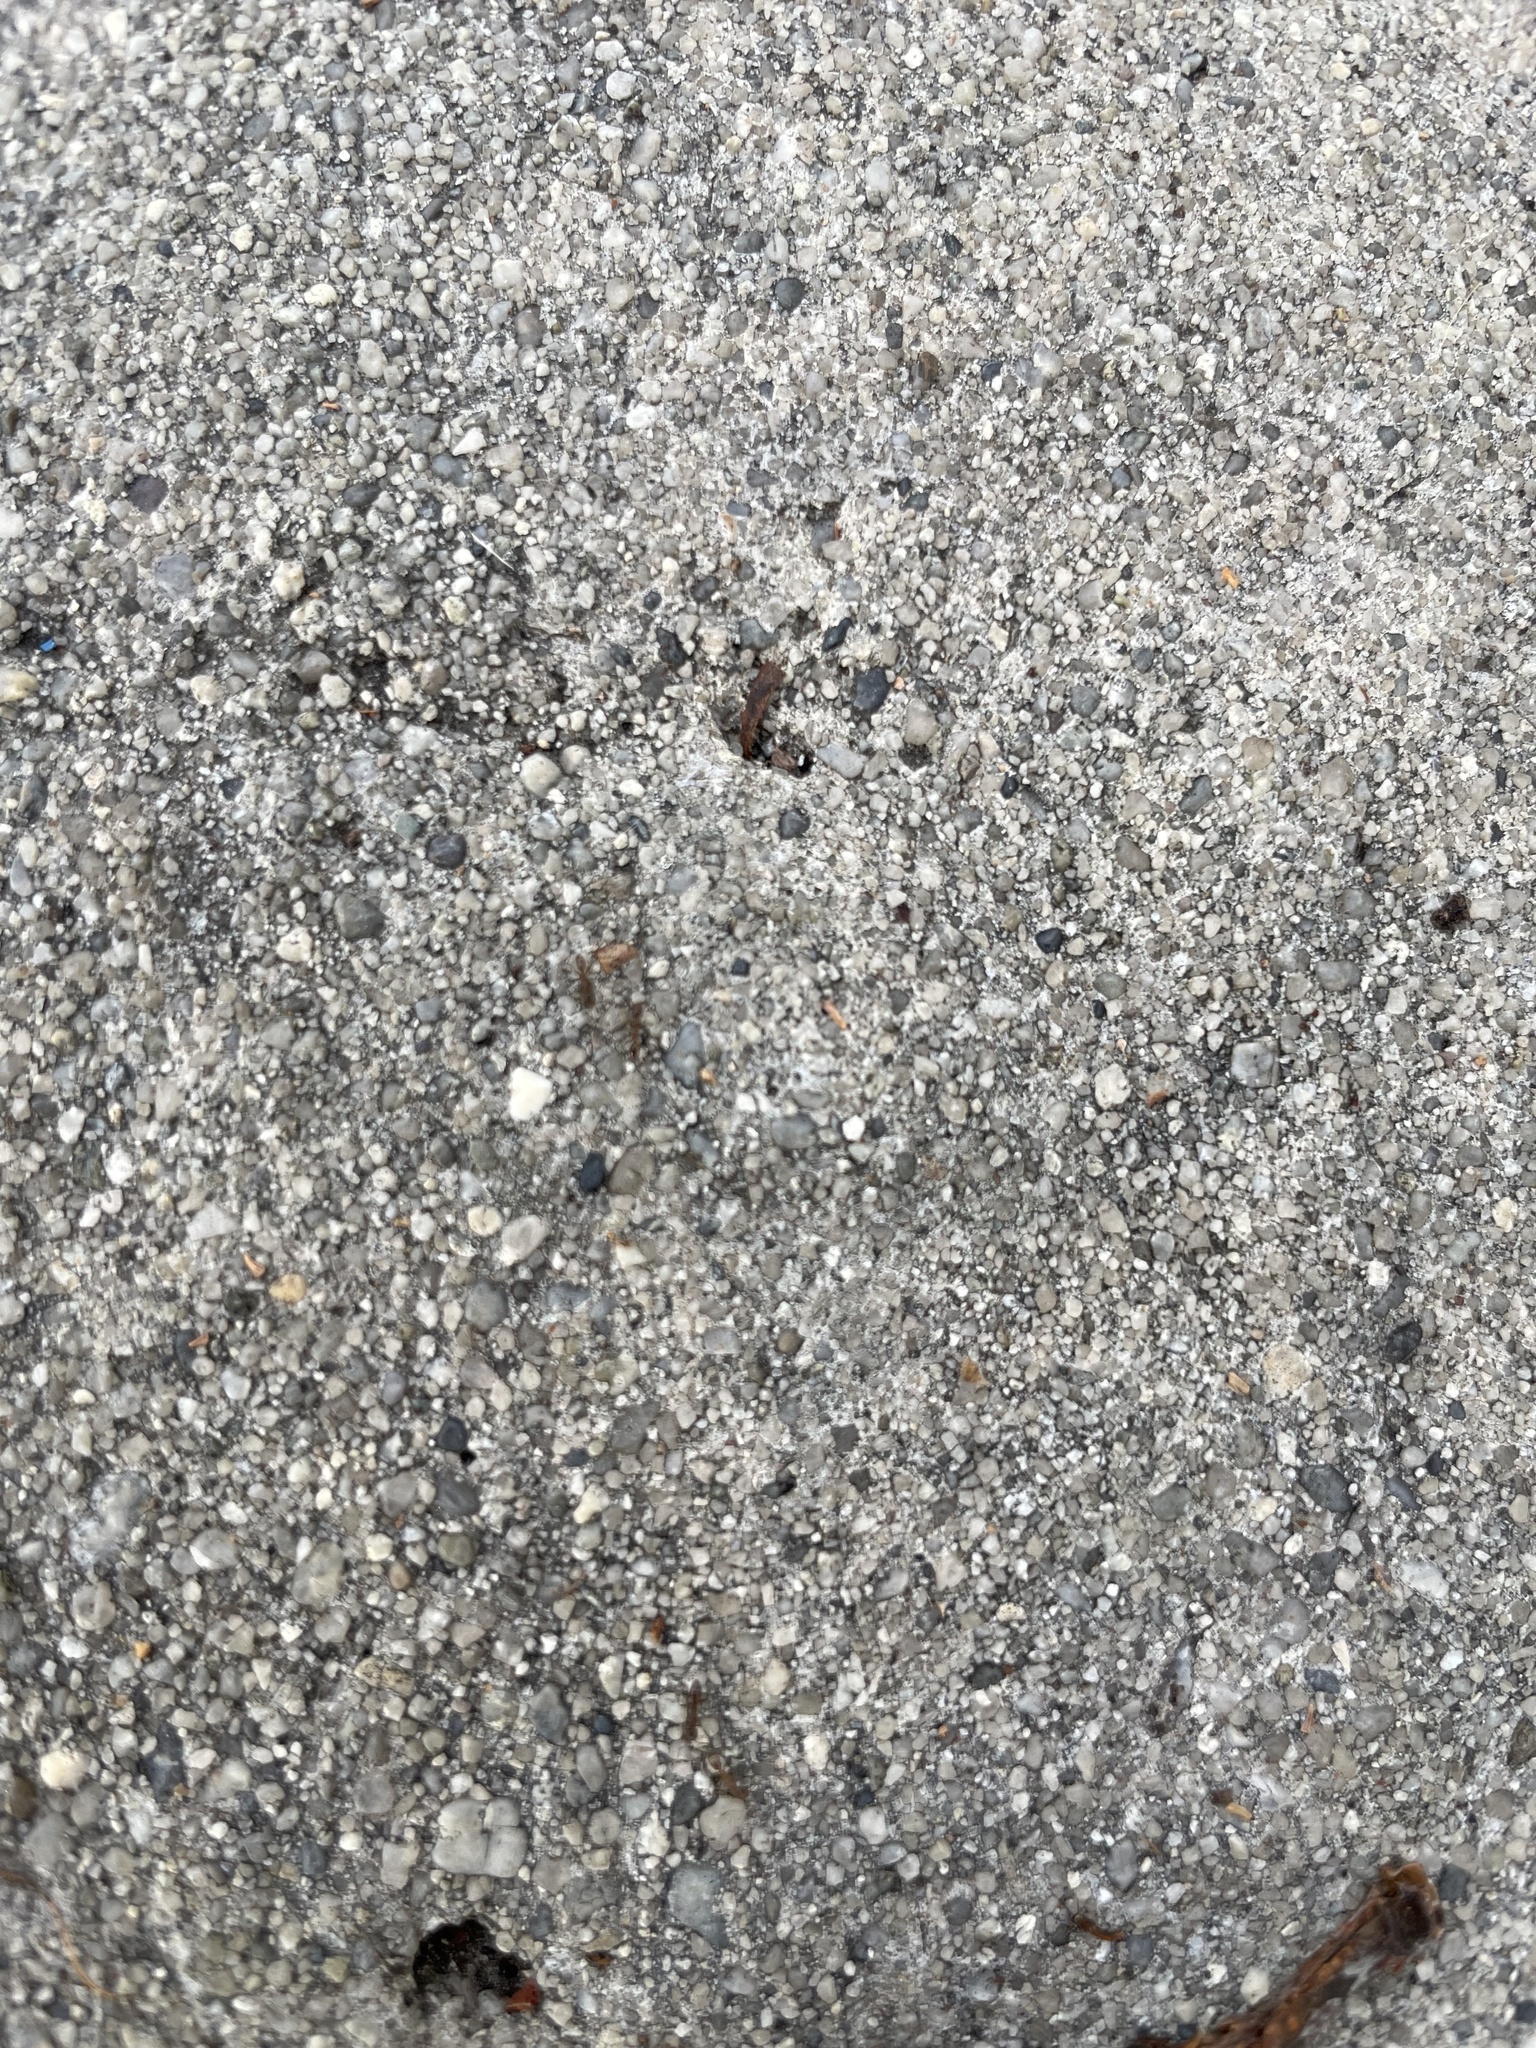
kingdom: Animalia
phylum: Arthropoda
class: Insecta
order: Hymenoptera
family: Formicidae
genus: Linepithema
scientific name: Linepithema humile
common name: Argentine ant
